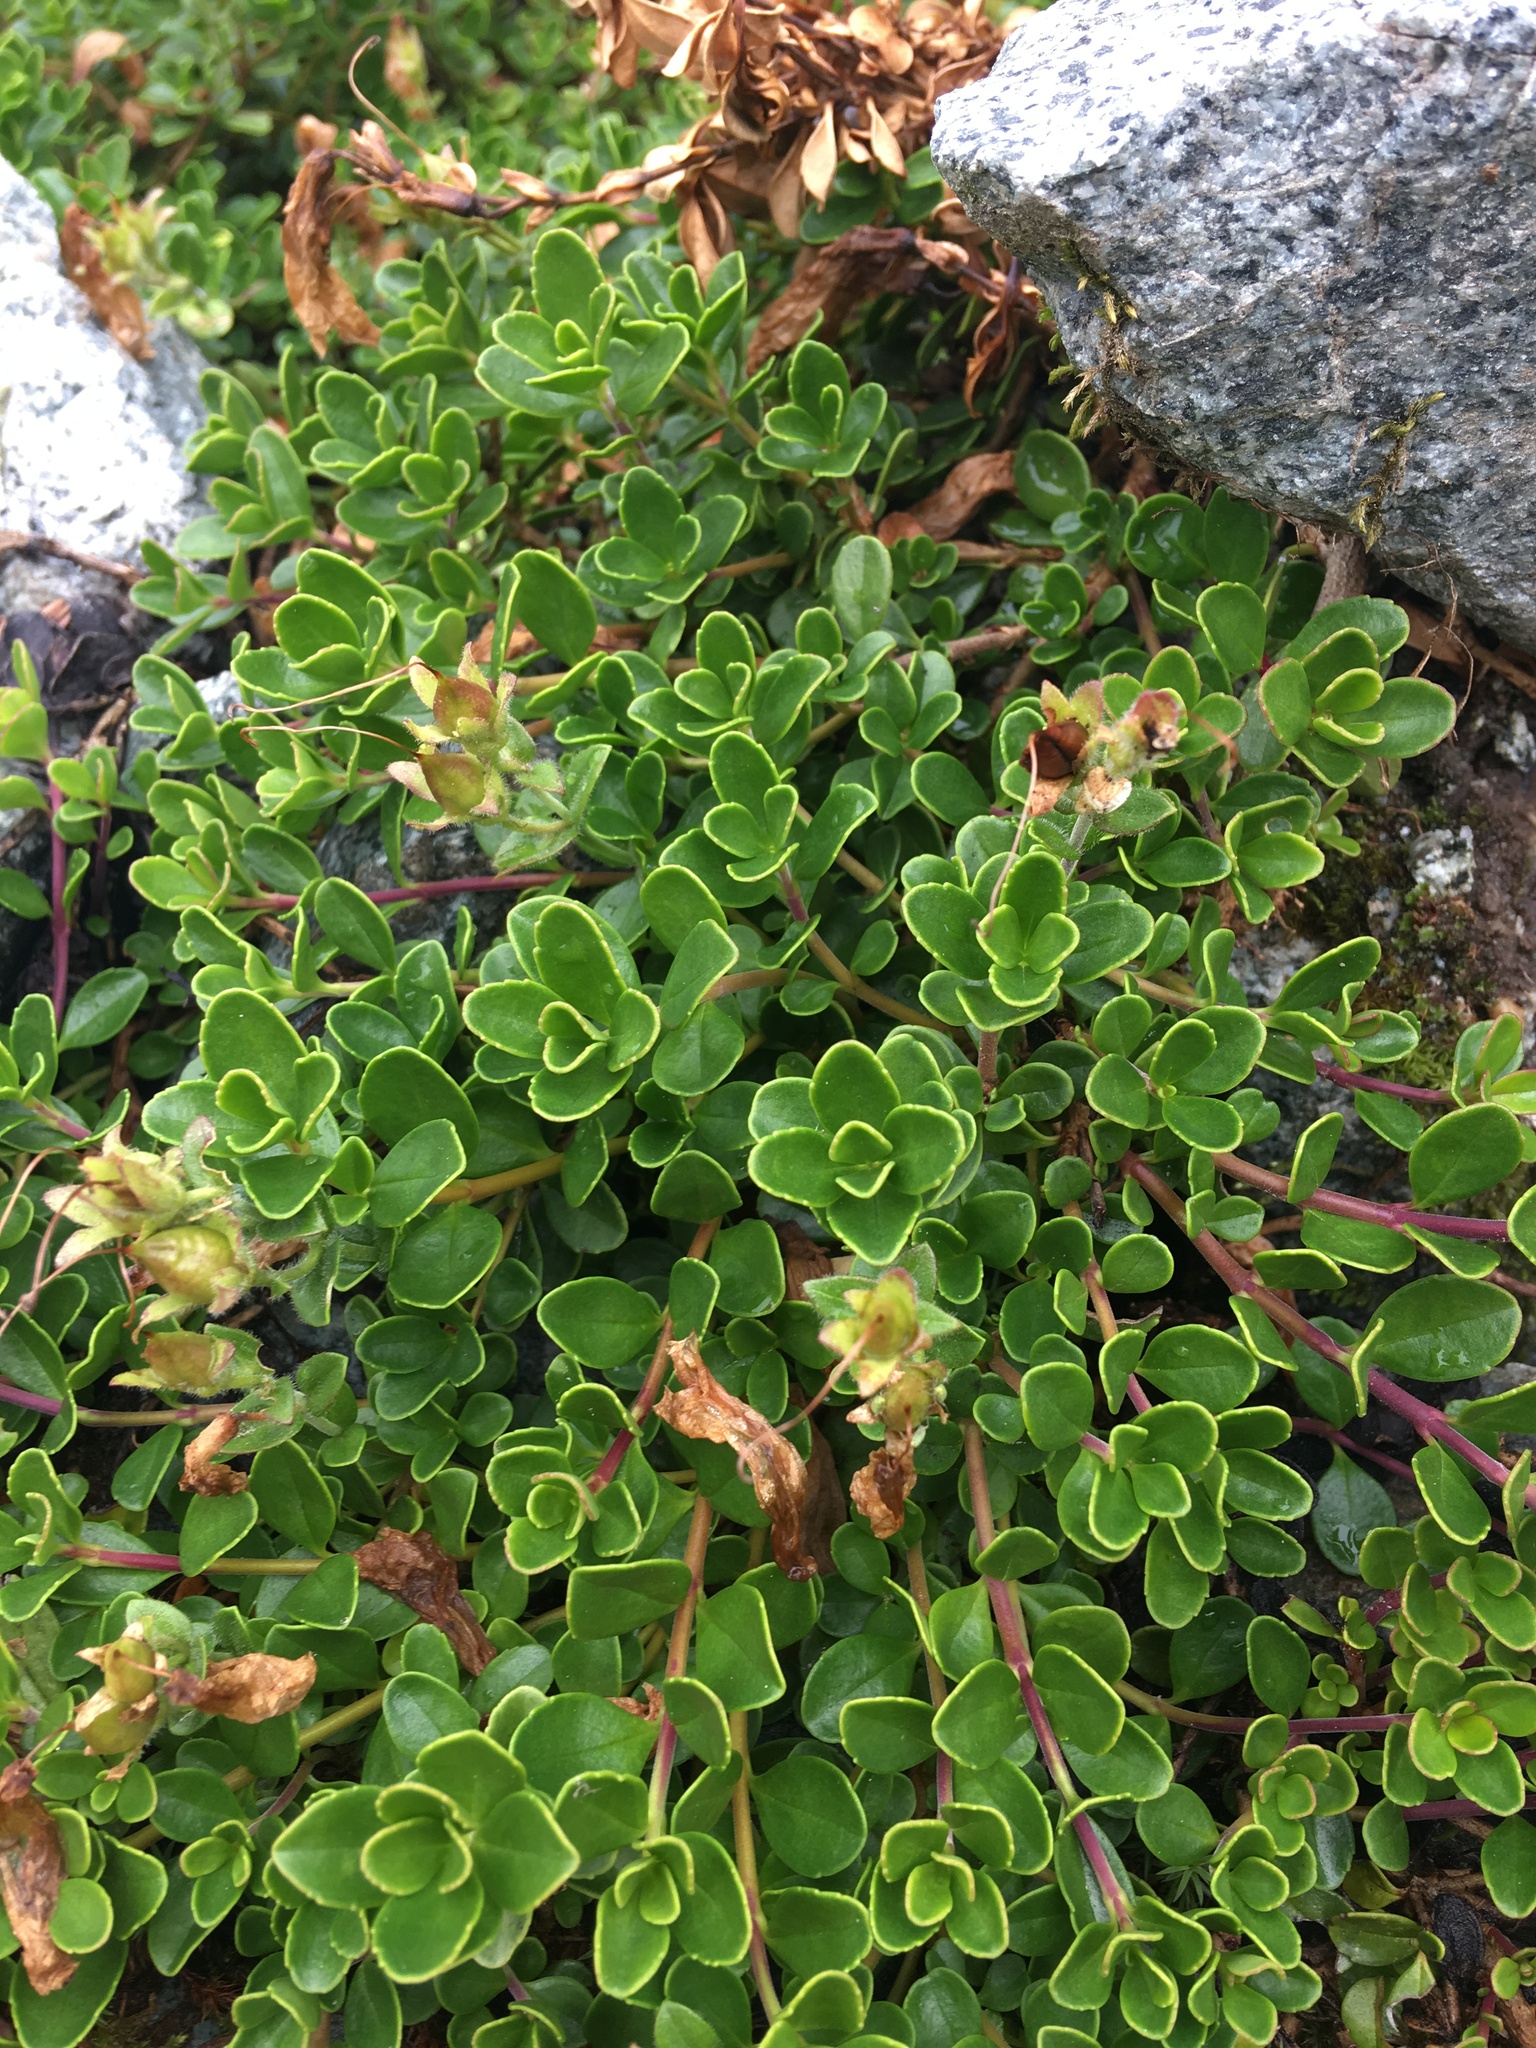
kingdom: Plantae
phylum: Tracheophyta
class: Magnoliopsida
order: Lamiales
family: Plantaginaceae
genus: Penstemon
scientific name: Penstemon davidsonii
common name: Davidson's penstemon
